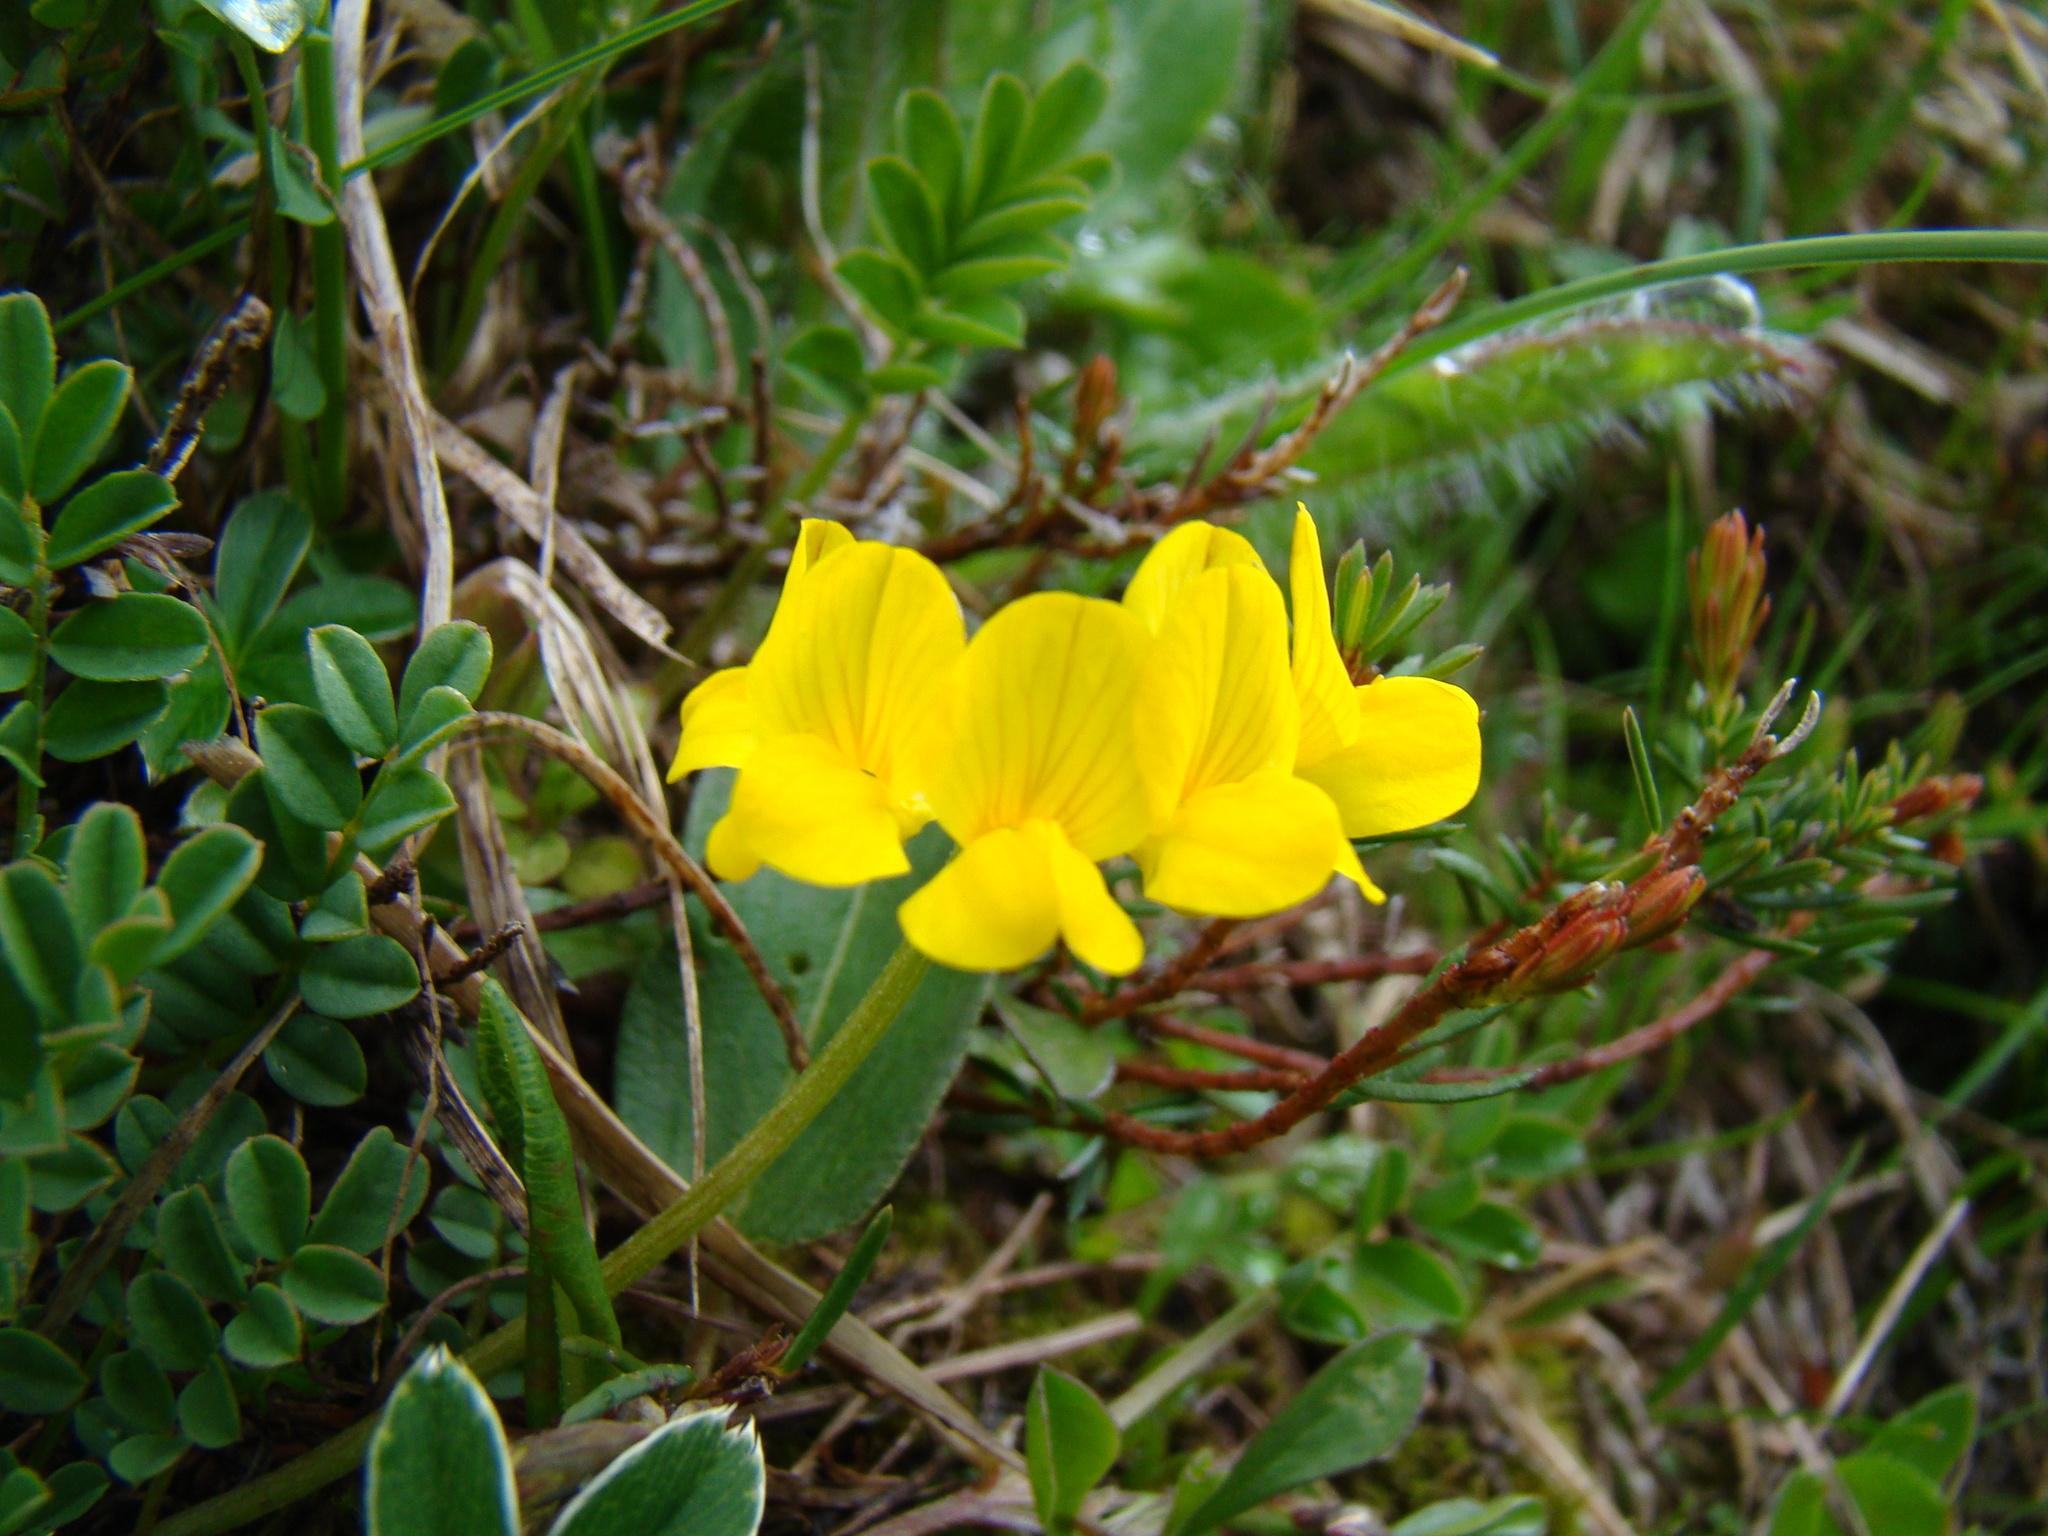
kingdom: Plantae
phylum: Tracheophyta
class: Magnoliopsida
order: Fabales
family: Fabaceae
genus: Hippocrepis
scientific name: Hippocrepis comosa
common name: Horseshoe vetch
